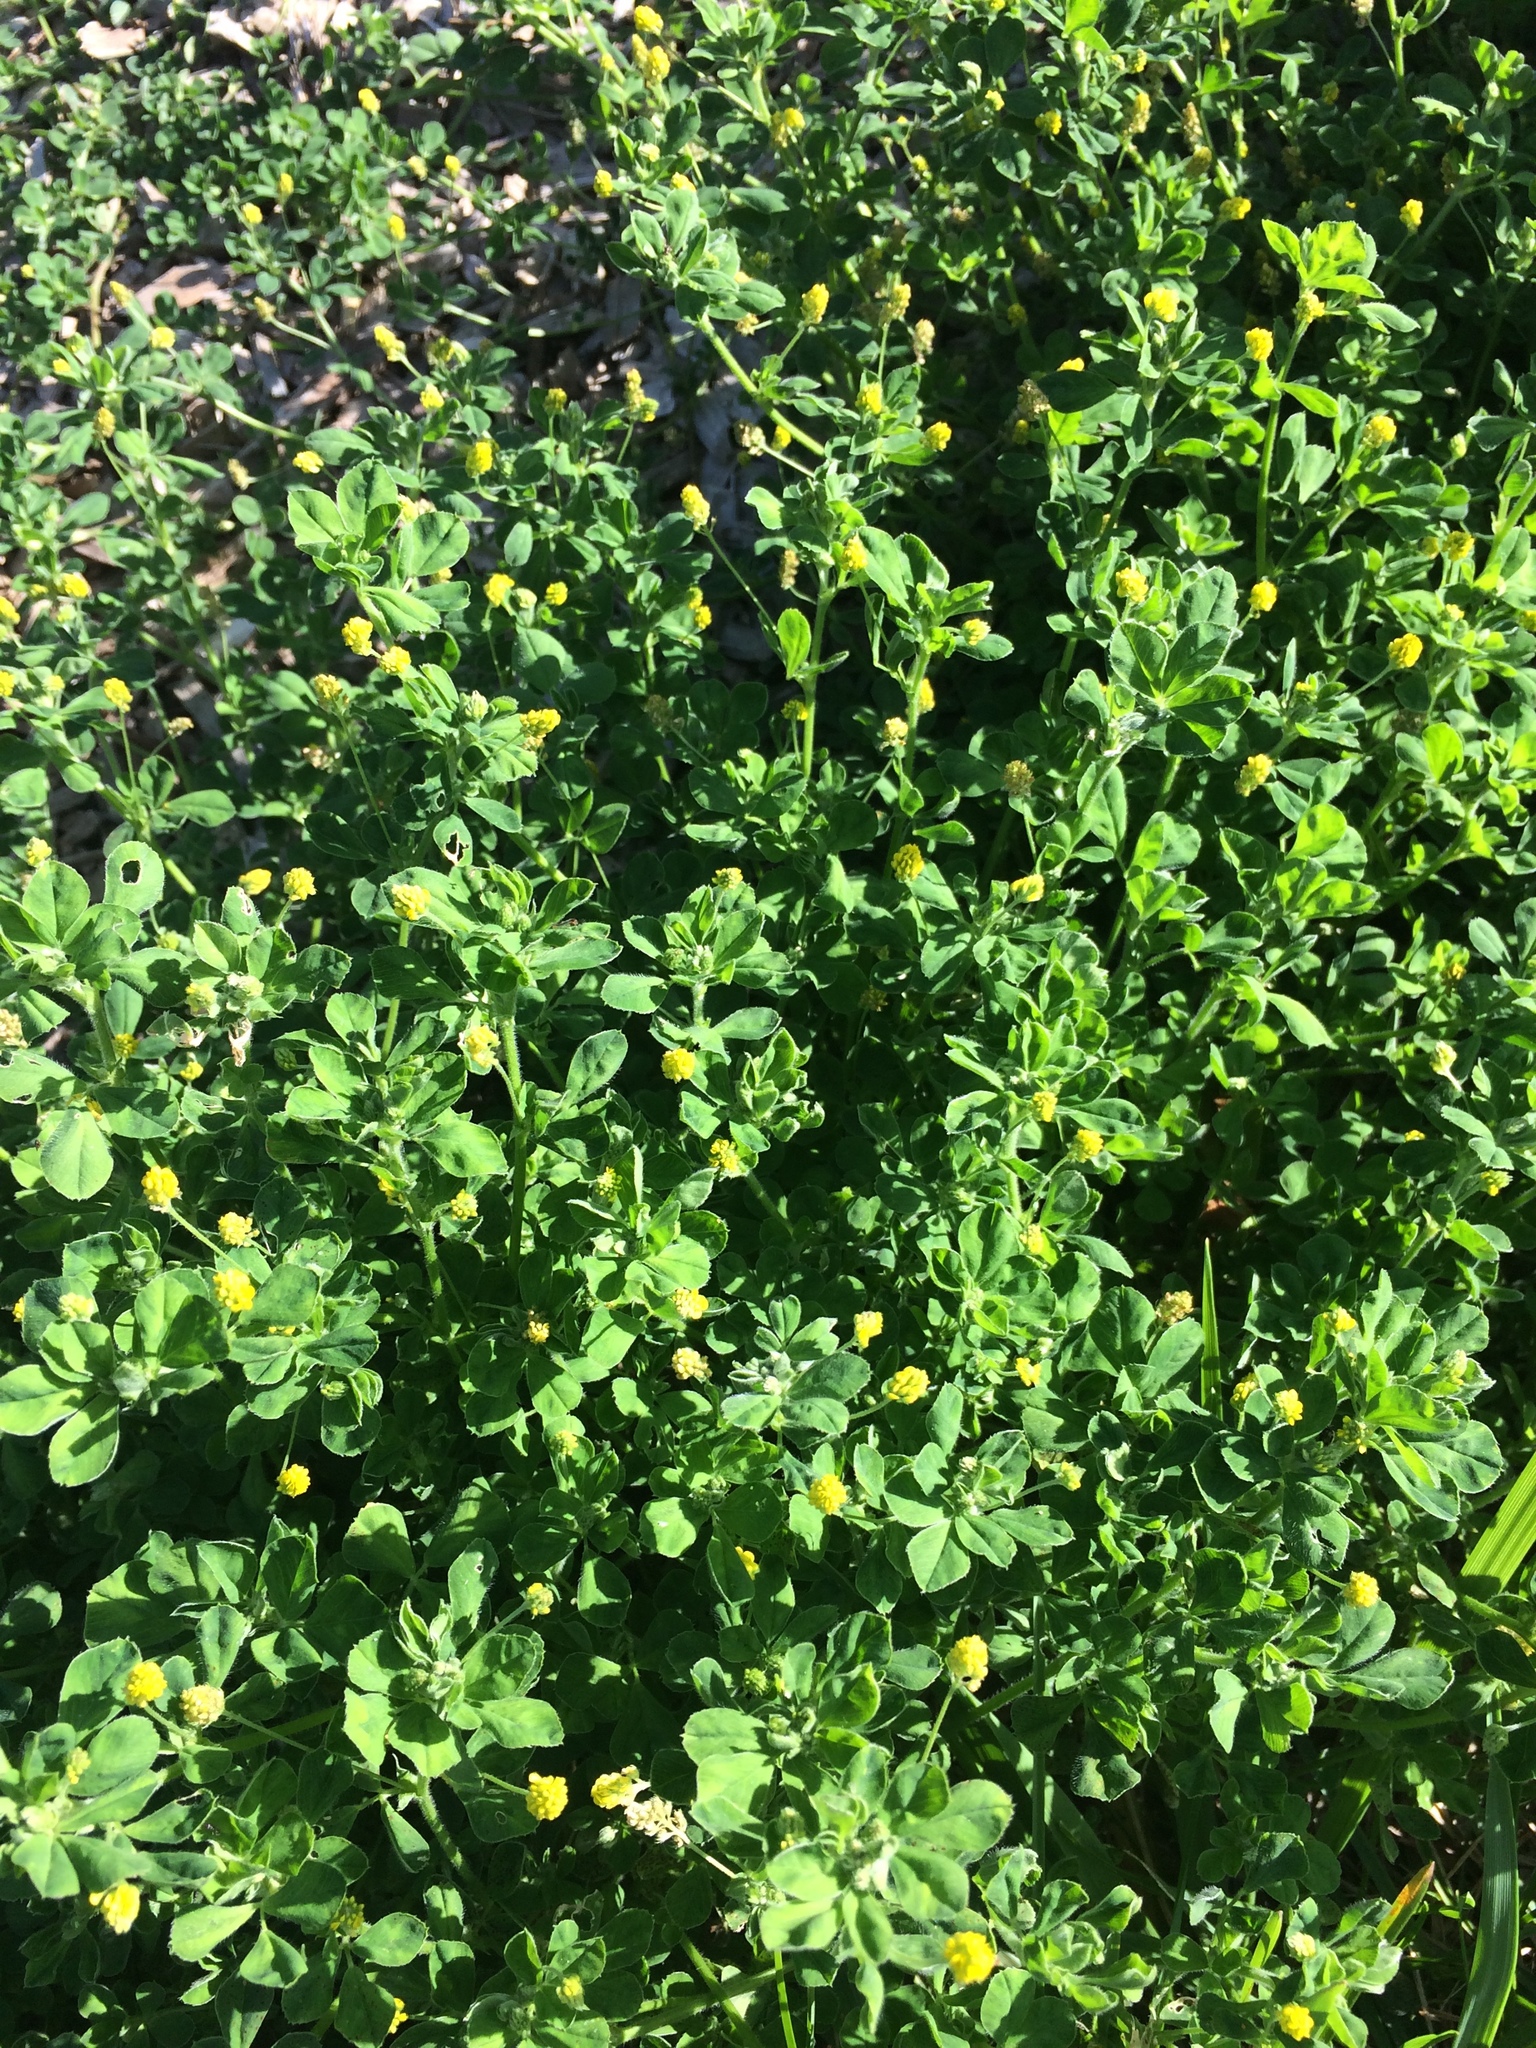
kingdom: Plantae
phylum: Tracheophyta
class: Magnoliopsida
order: Fabales
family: Fabaceae
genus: Medicago
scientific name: Medicago lupulina
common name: Black medick
